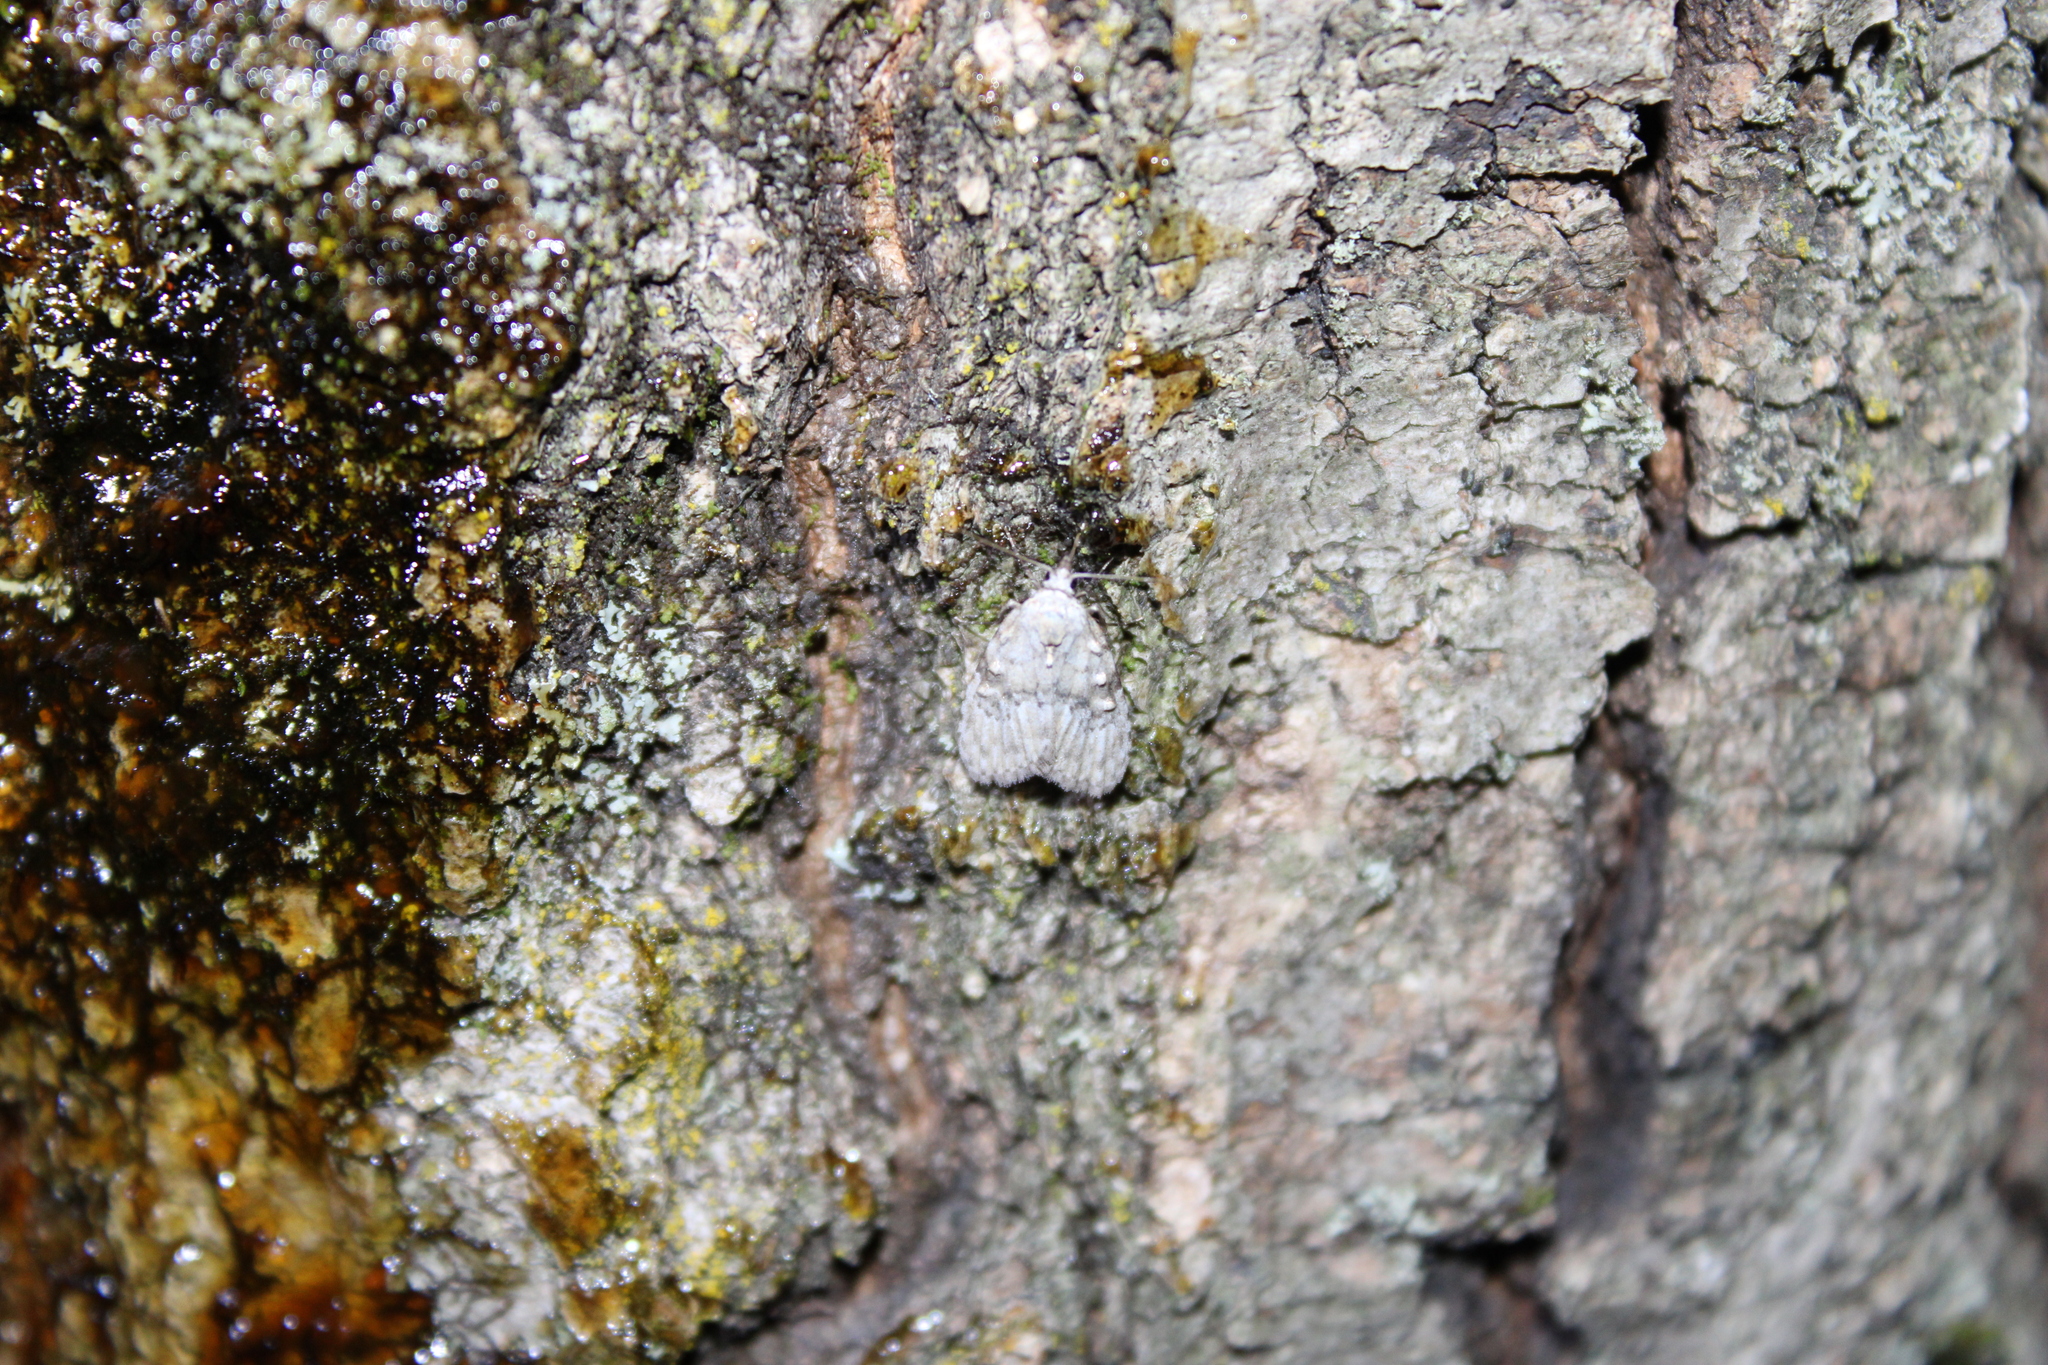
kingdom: Animalia
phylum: Arthropoda
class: Insecta
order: Lepidoptera
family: Erebidae
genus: Clemensia
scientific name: Clemensia albata
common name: Little white lichen moth
